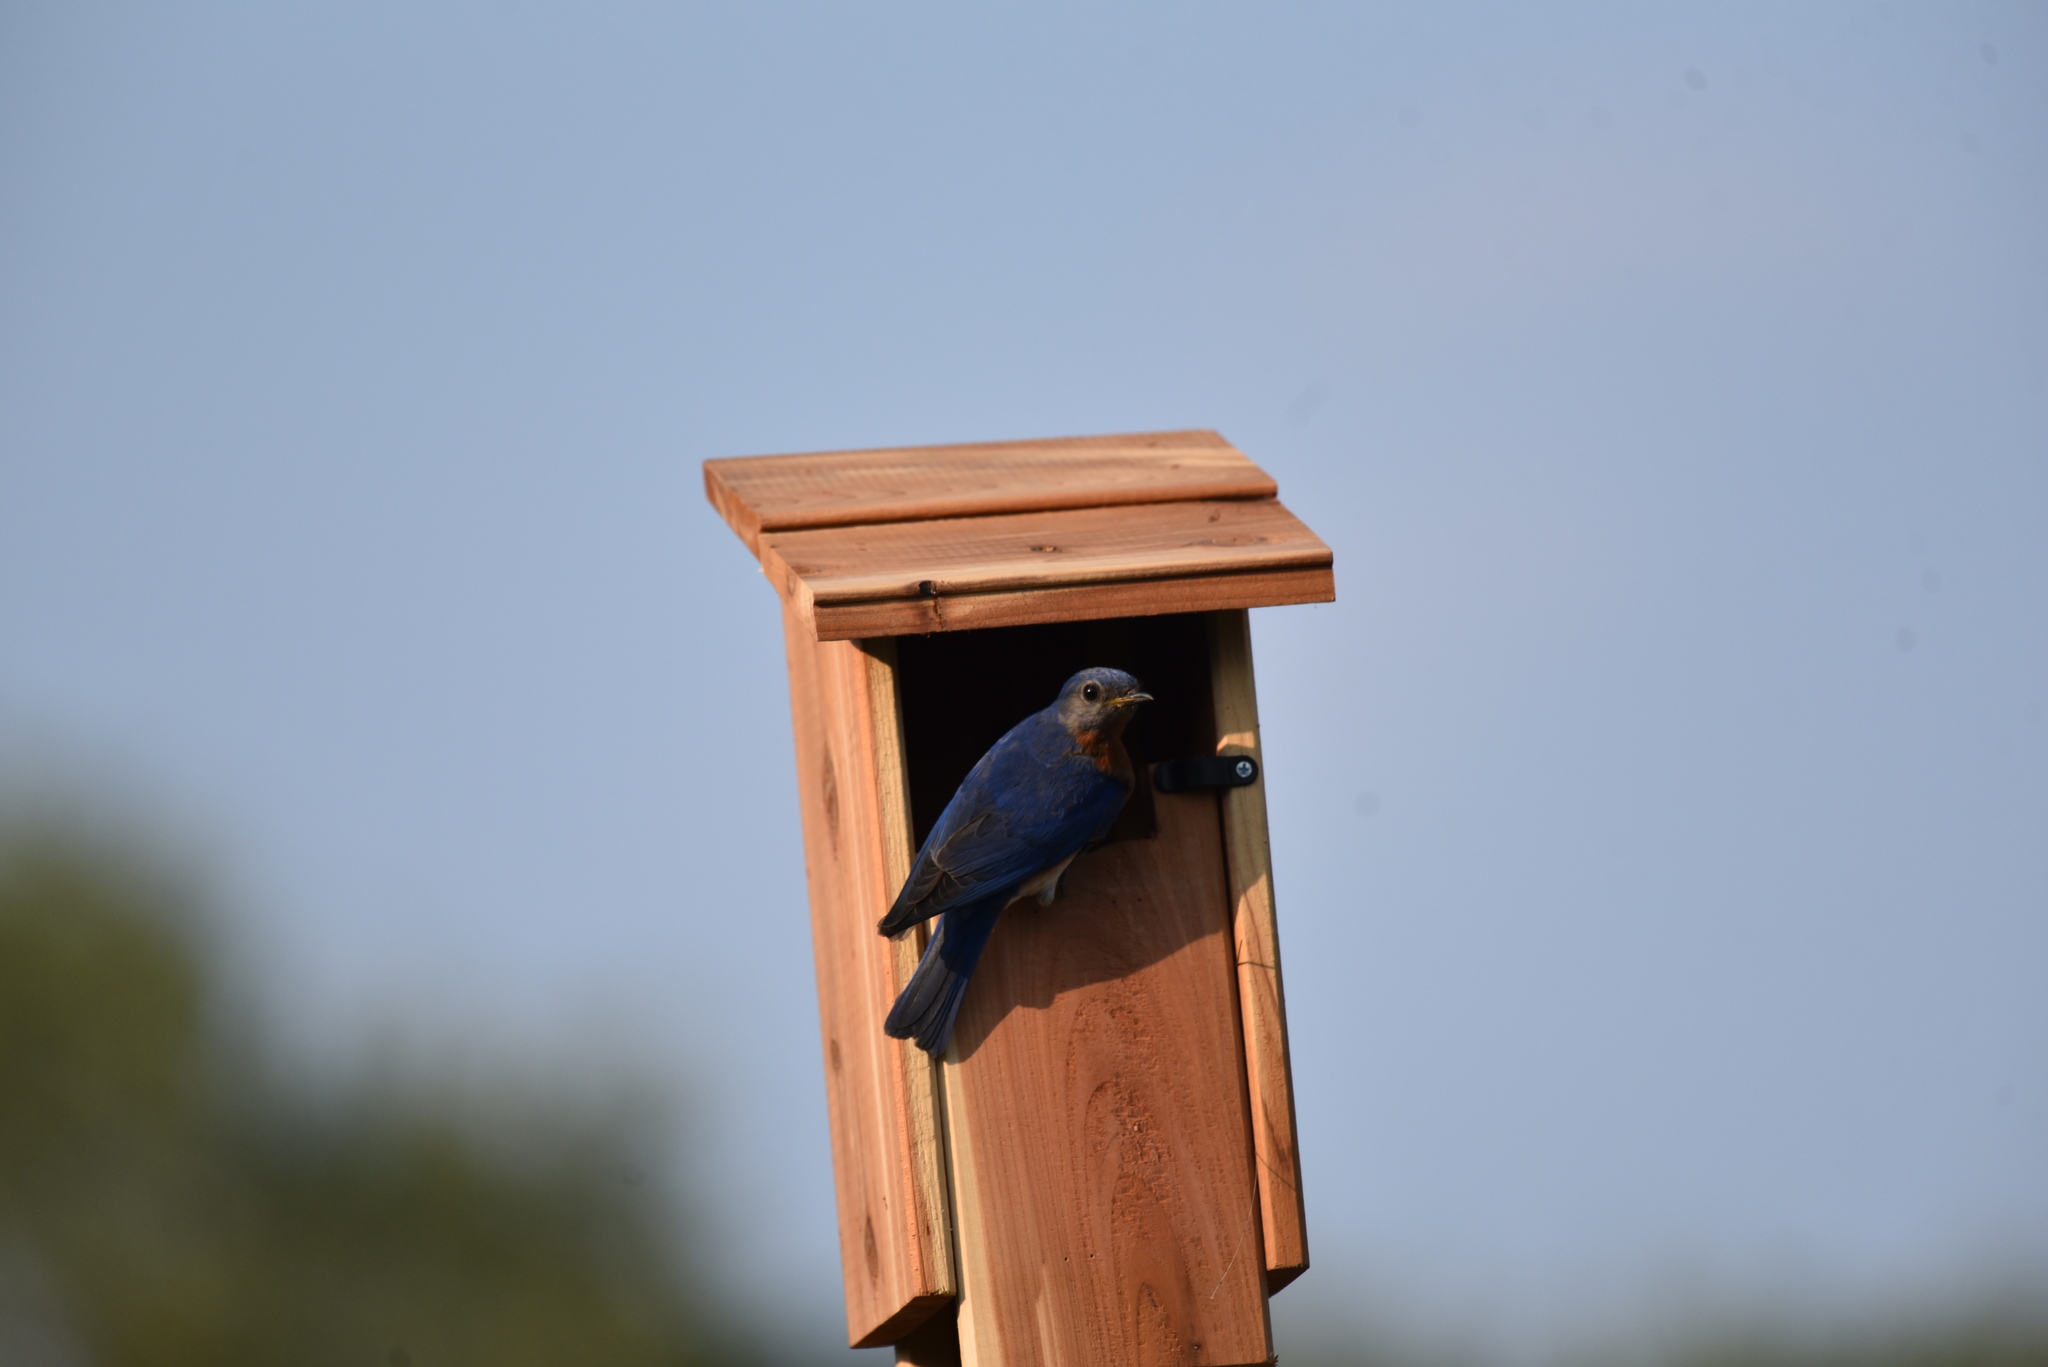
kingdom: Animalia
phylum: Chordata
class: Aves
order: Passeriformes
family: Turdidae
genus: Sialia
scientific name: Sialia sialis
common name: Eastern bluebird
